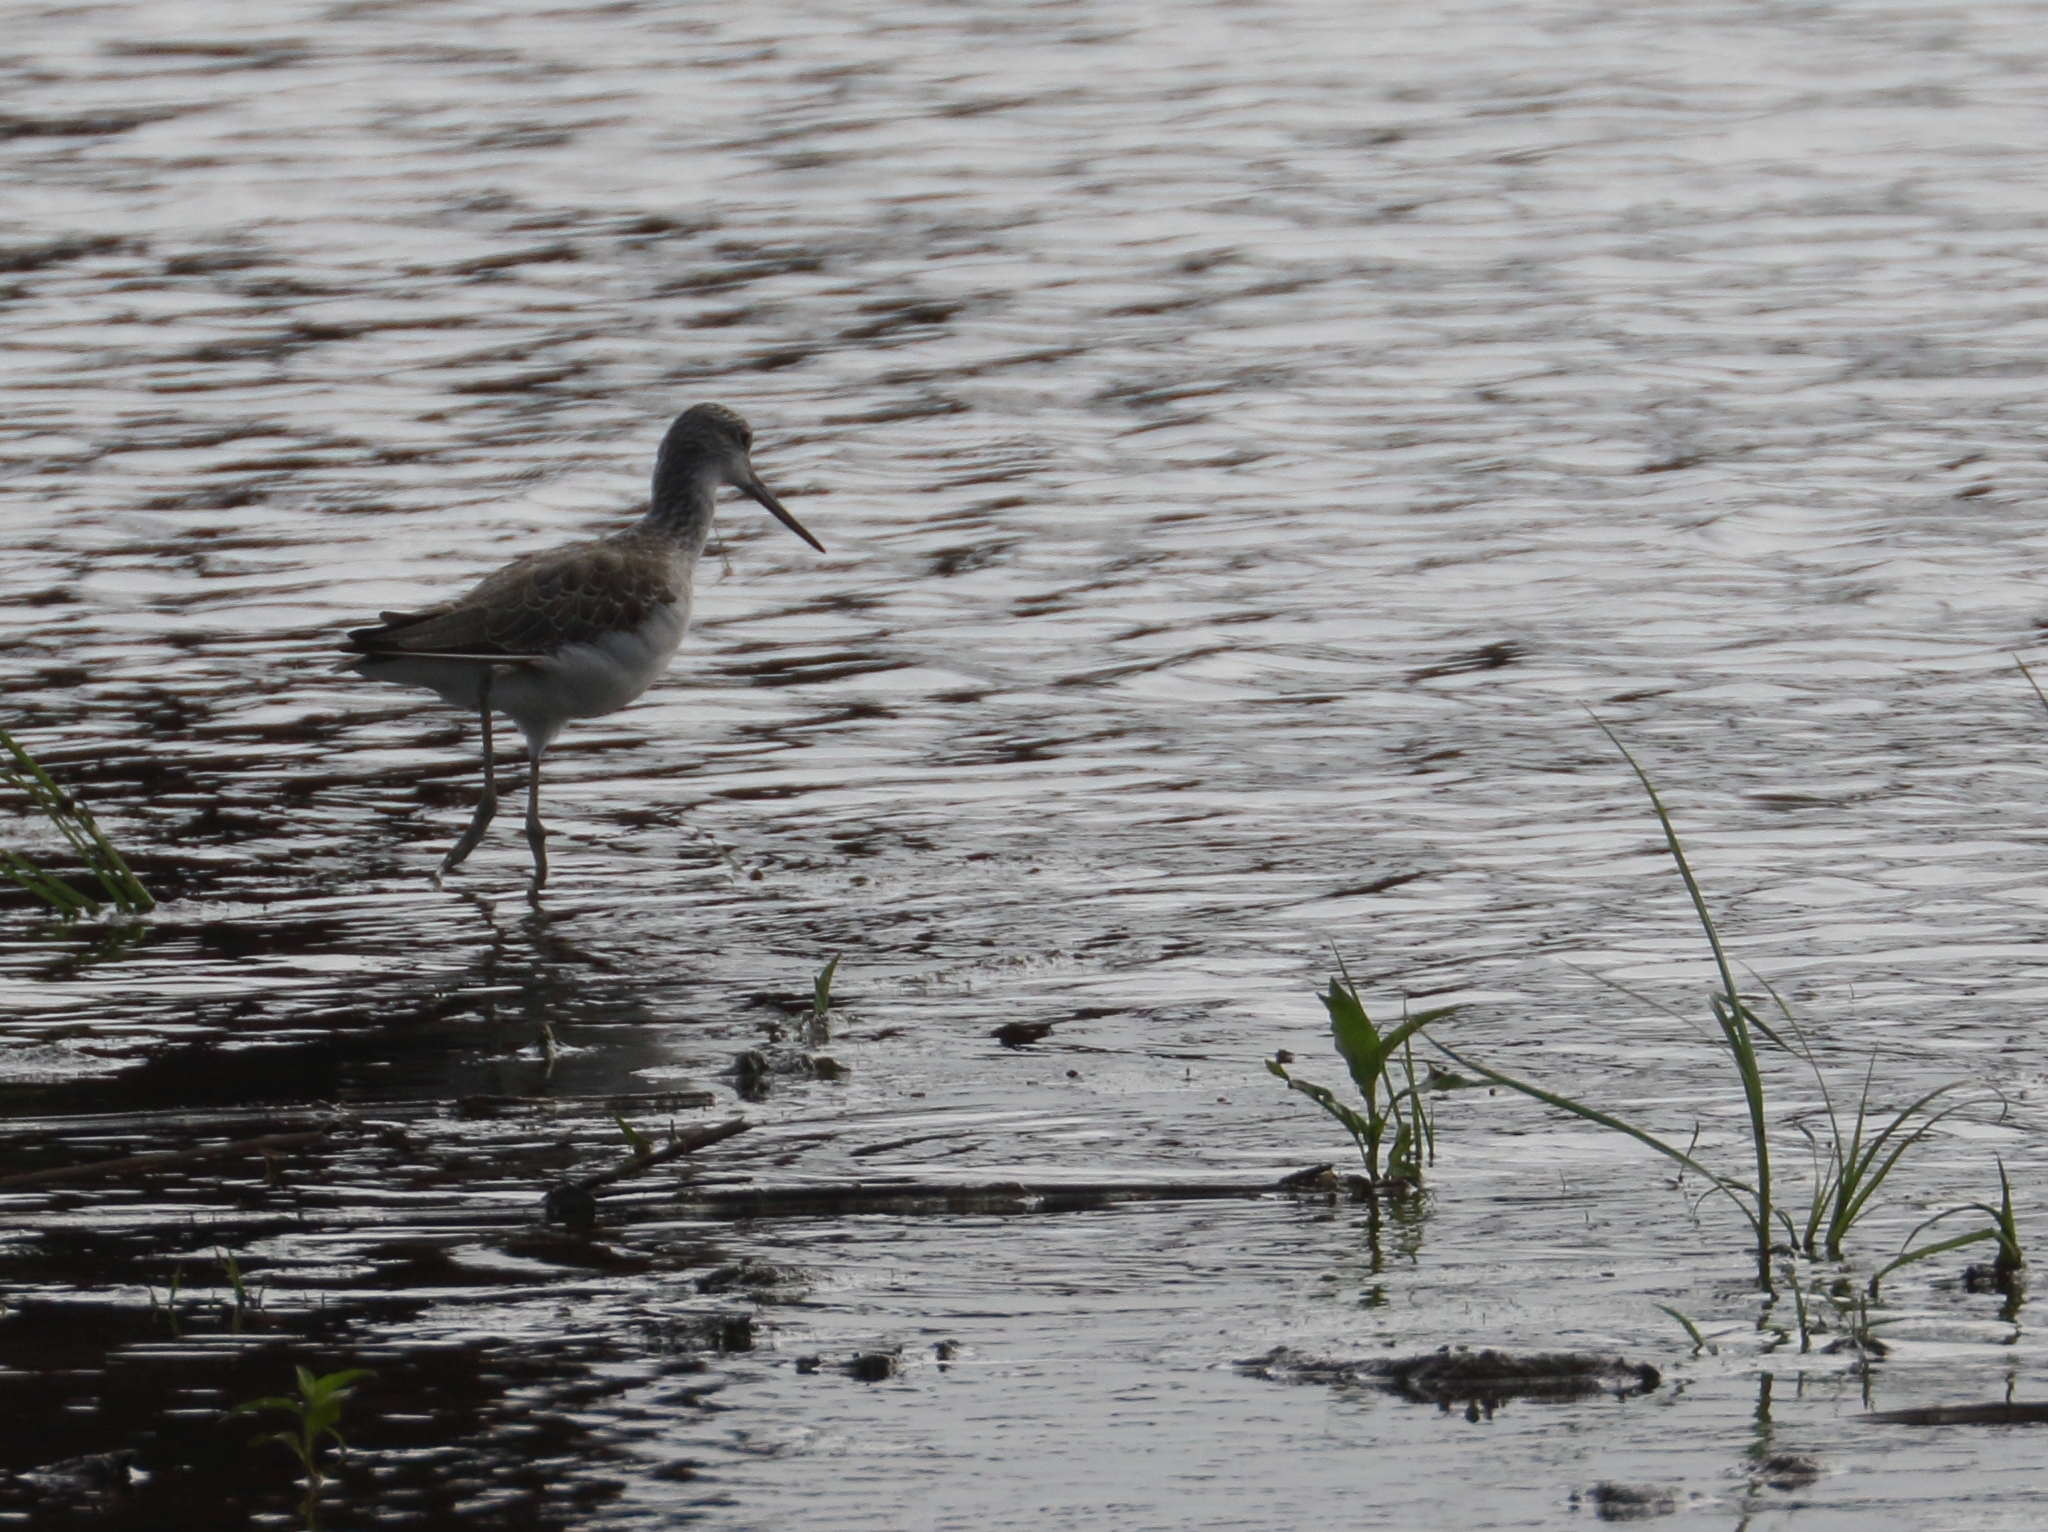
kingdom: Animalia
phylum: Chordata
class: Aves
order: Charadriiformes
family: Scolopacidae
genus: Tringa
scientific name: Tringa nebularia
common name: Common greenshank
